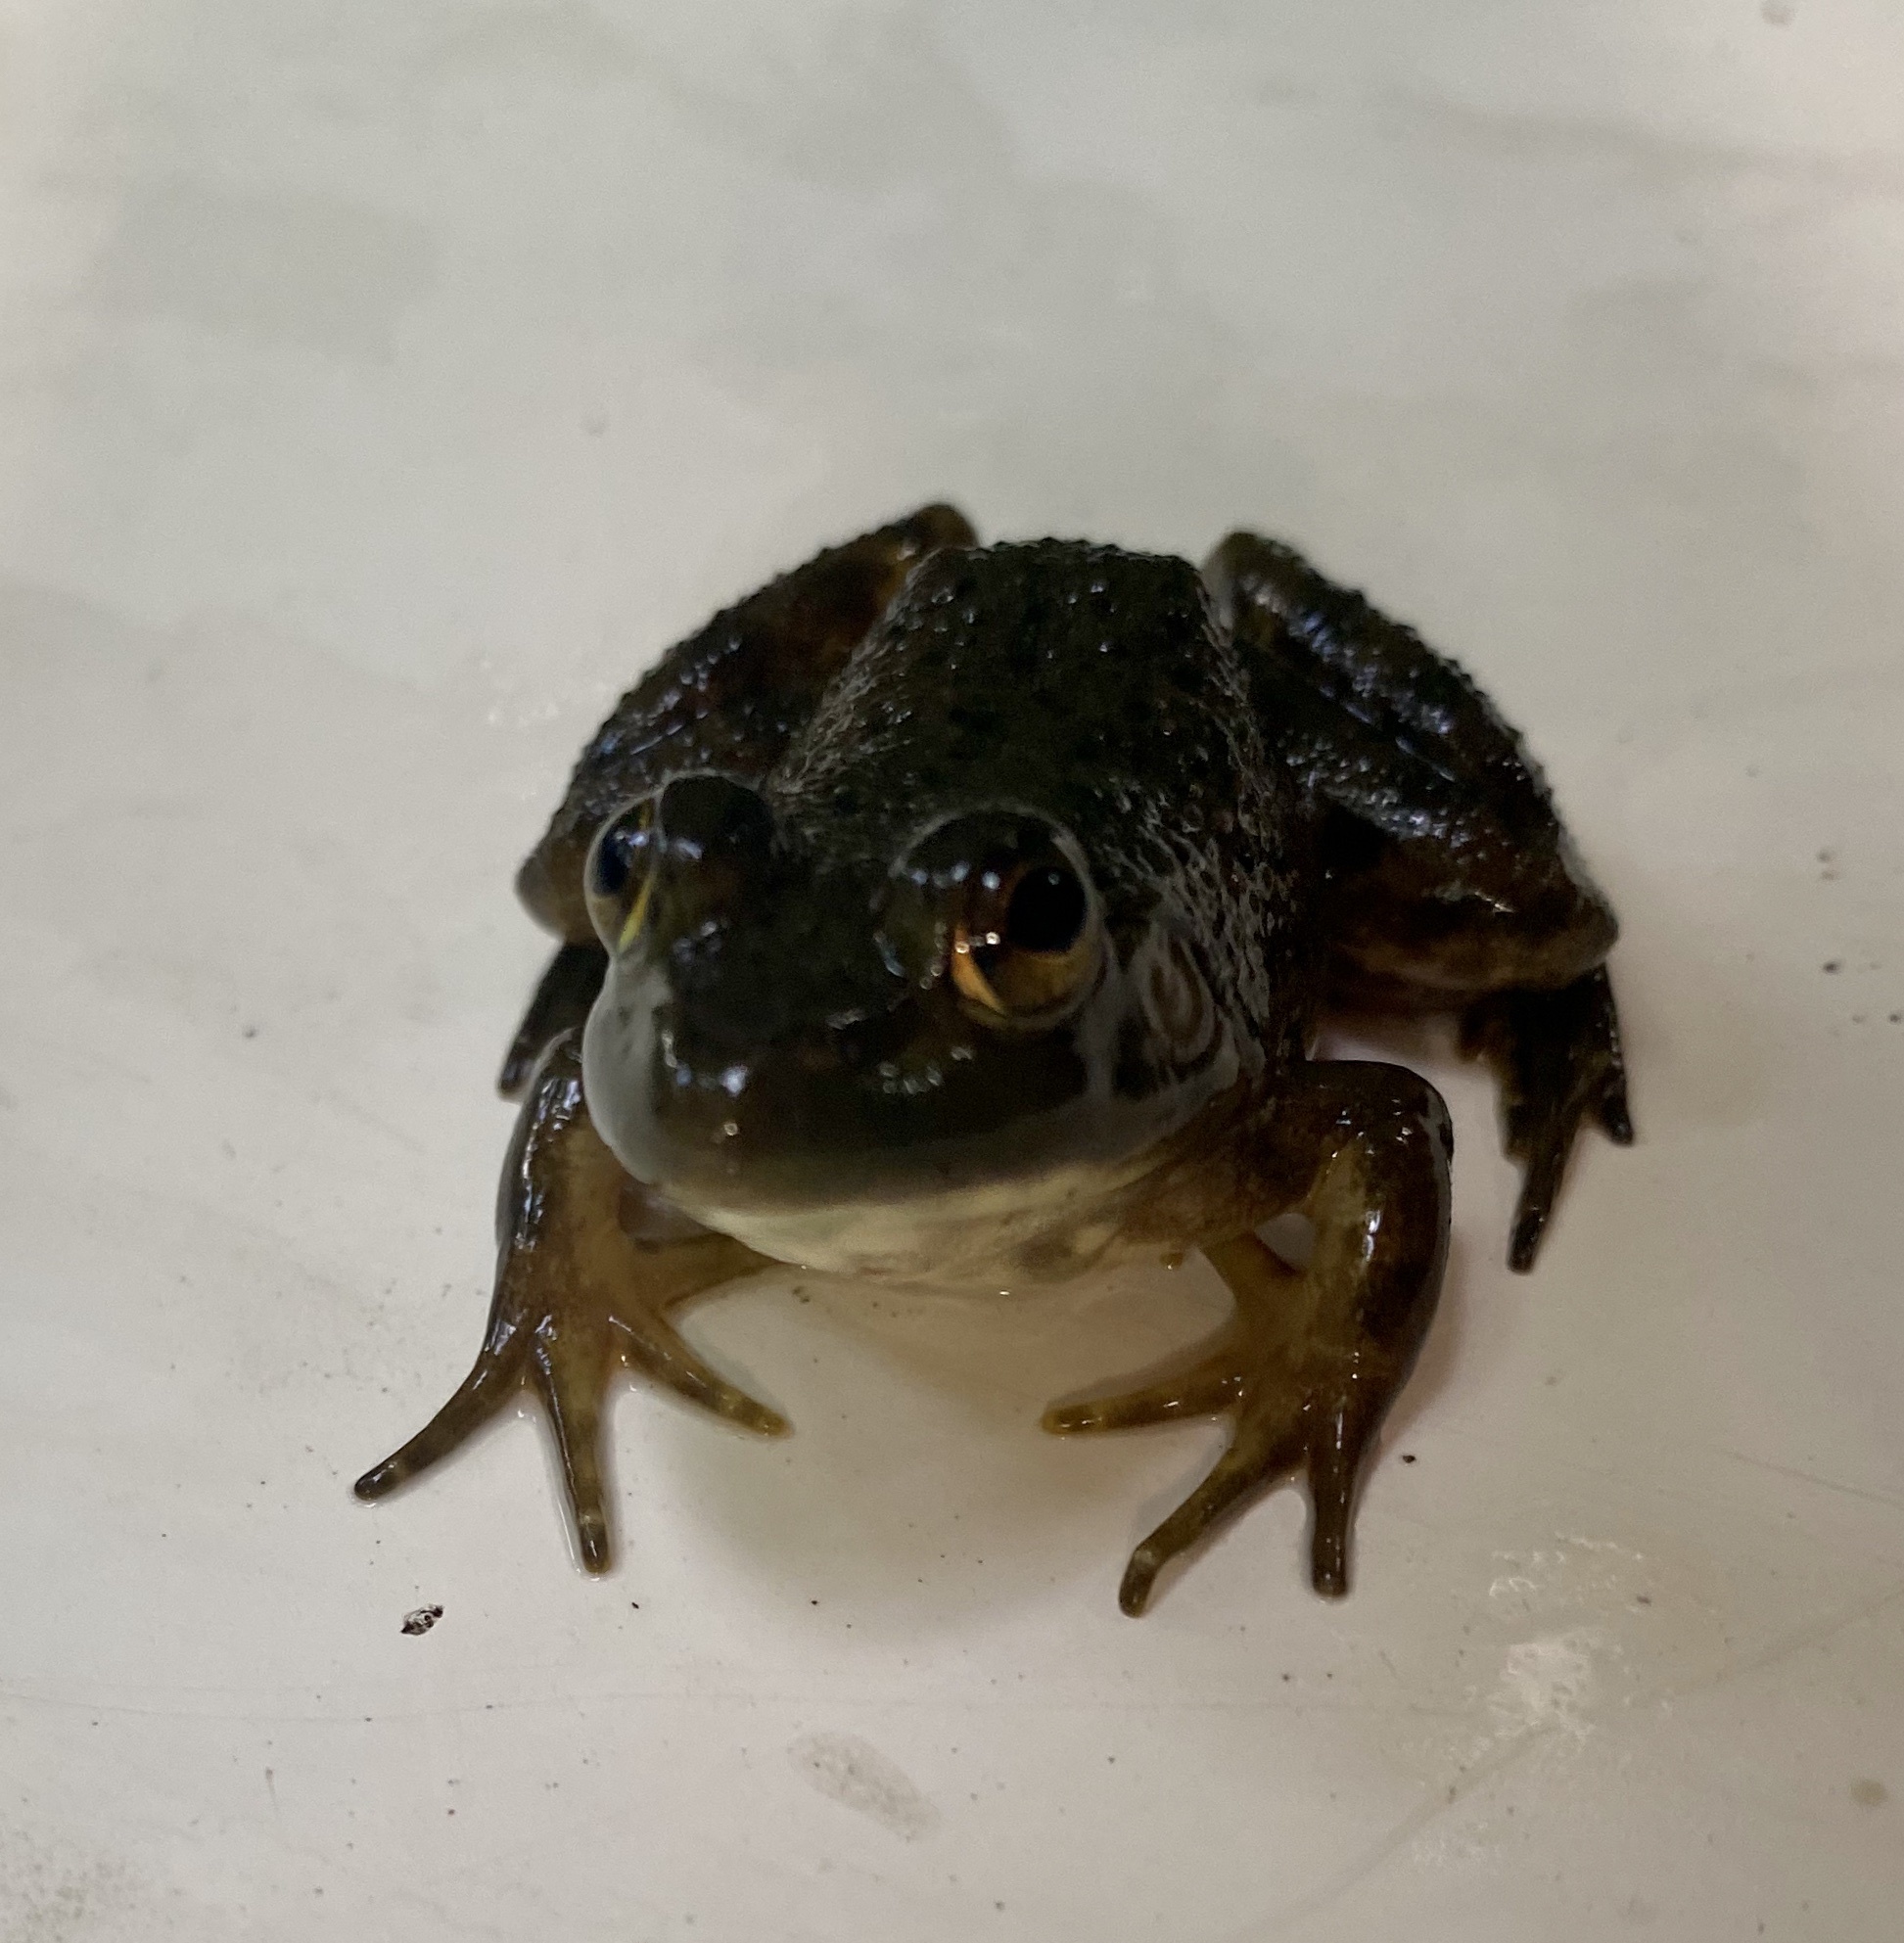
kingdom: Animalia
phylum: Chordata
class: Amphibia
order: Anura
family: Ranidae
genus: Lithobates
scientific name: Lithobates catesbeianus
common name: American bullfrog
